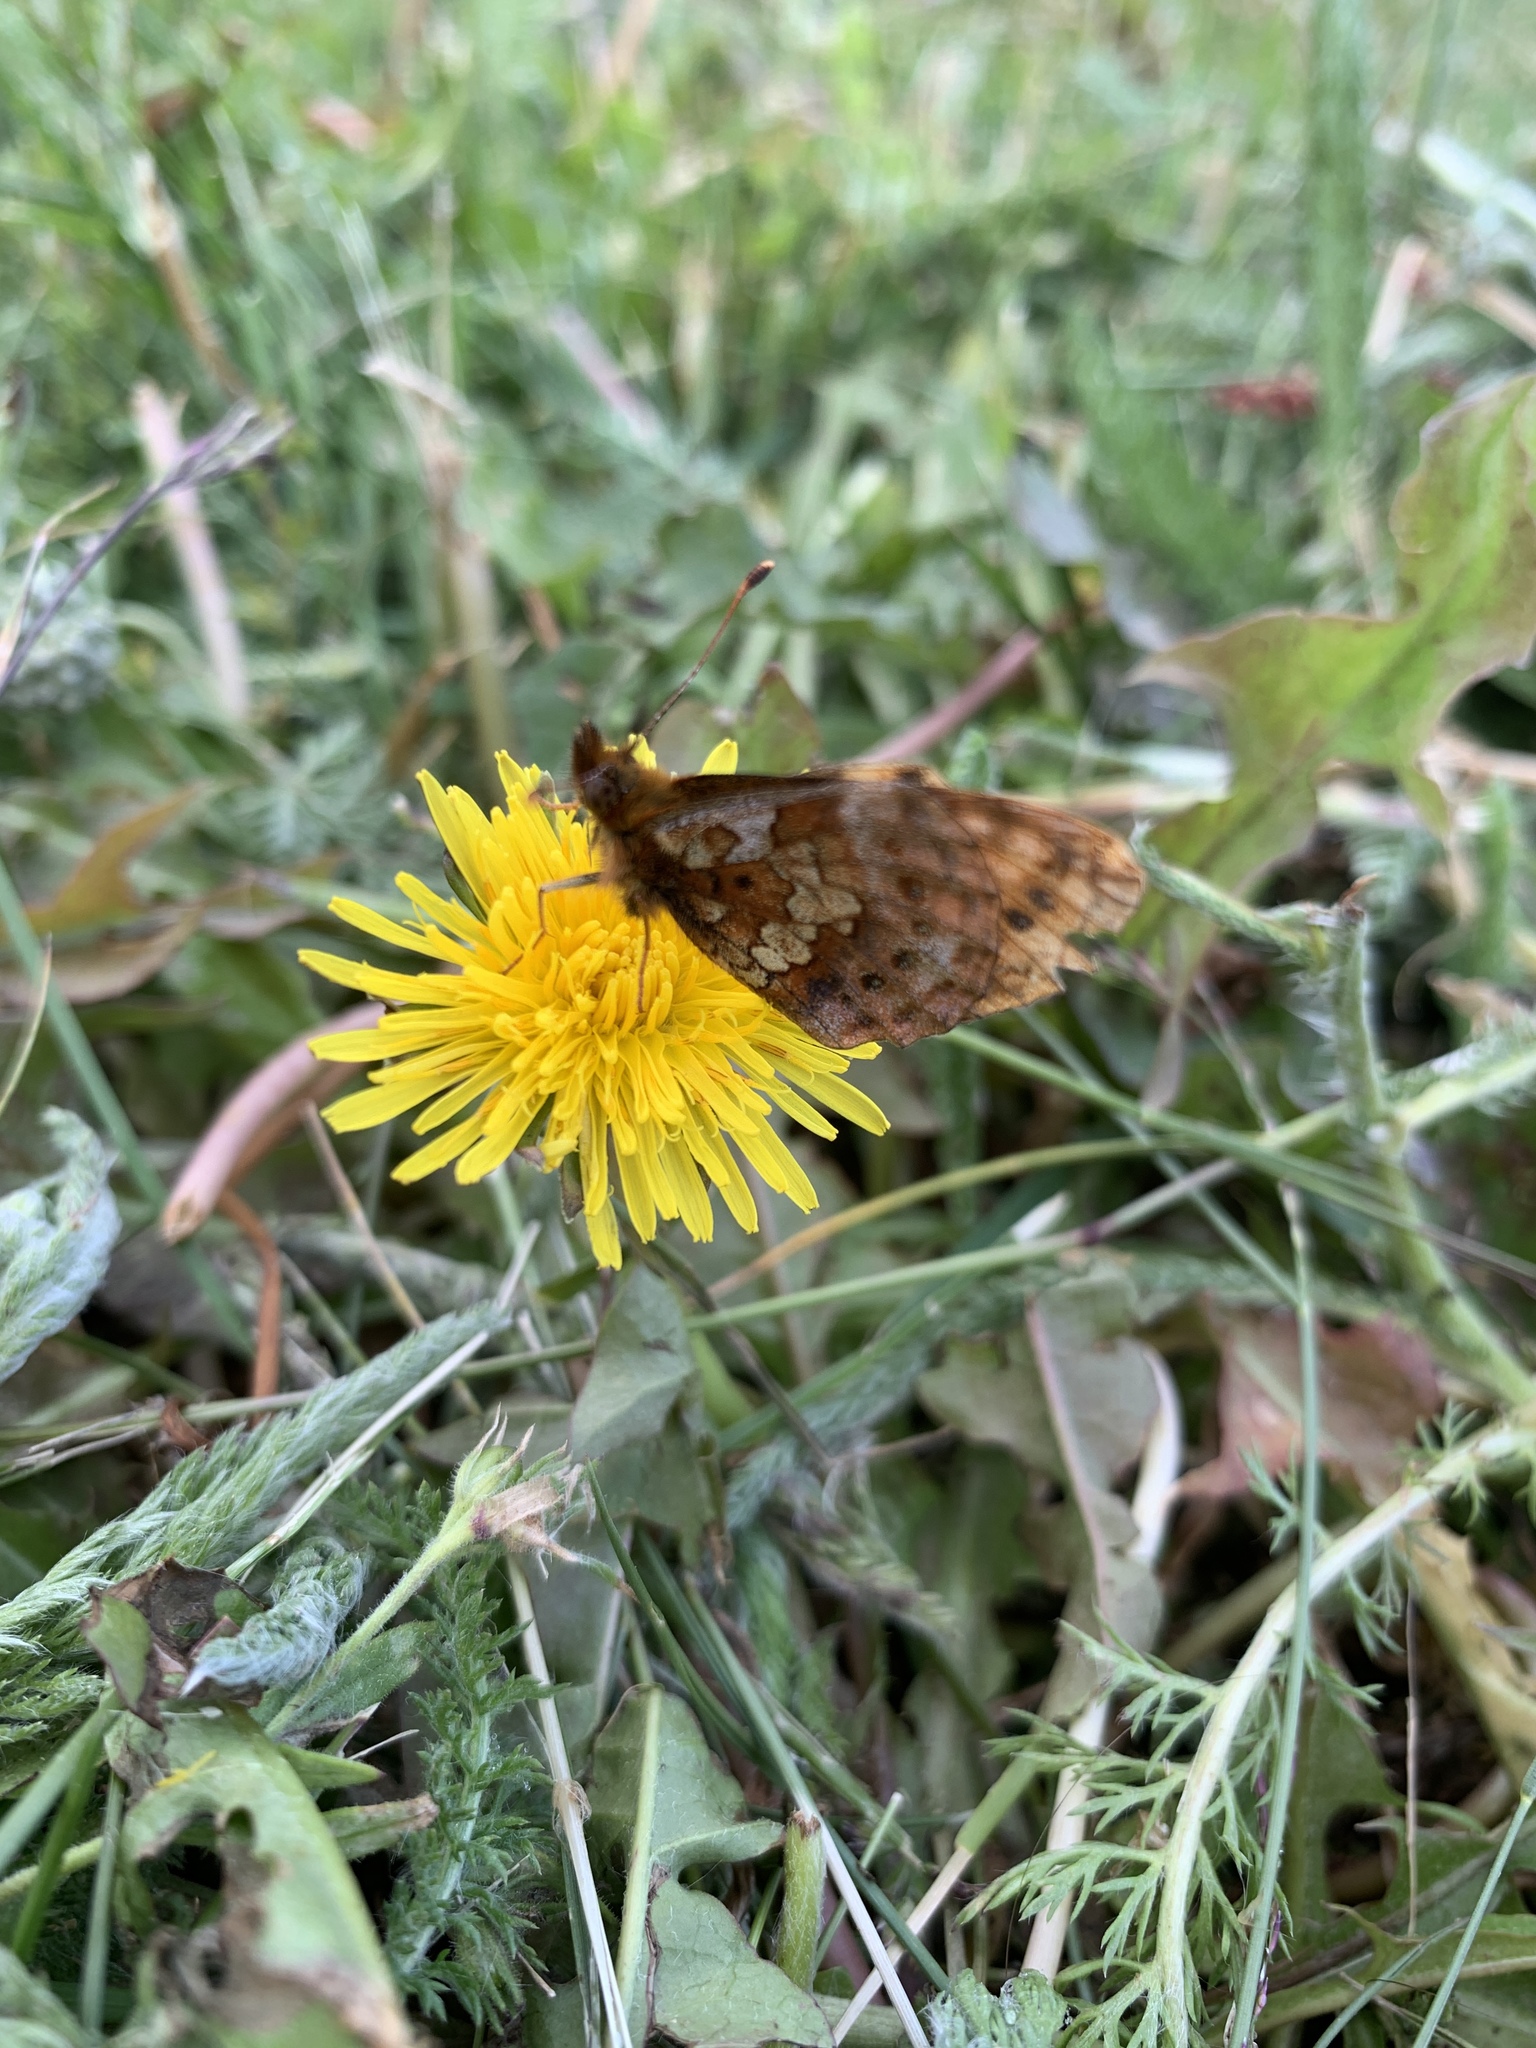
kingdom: Animalia
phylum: Arthropoda
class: Insecta
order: Lepidoptera
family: Nymphalidae
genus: Boloria
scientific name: Boloria epithore
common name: Pacific fritillary
